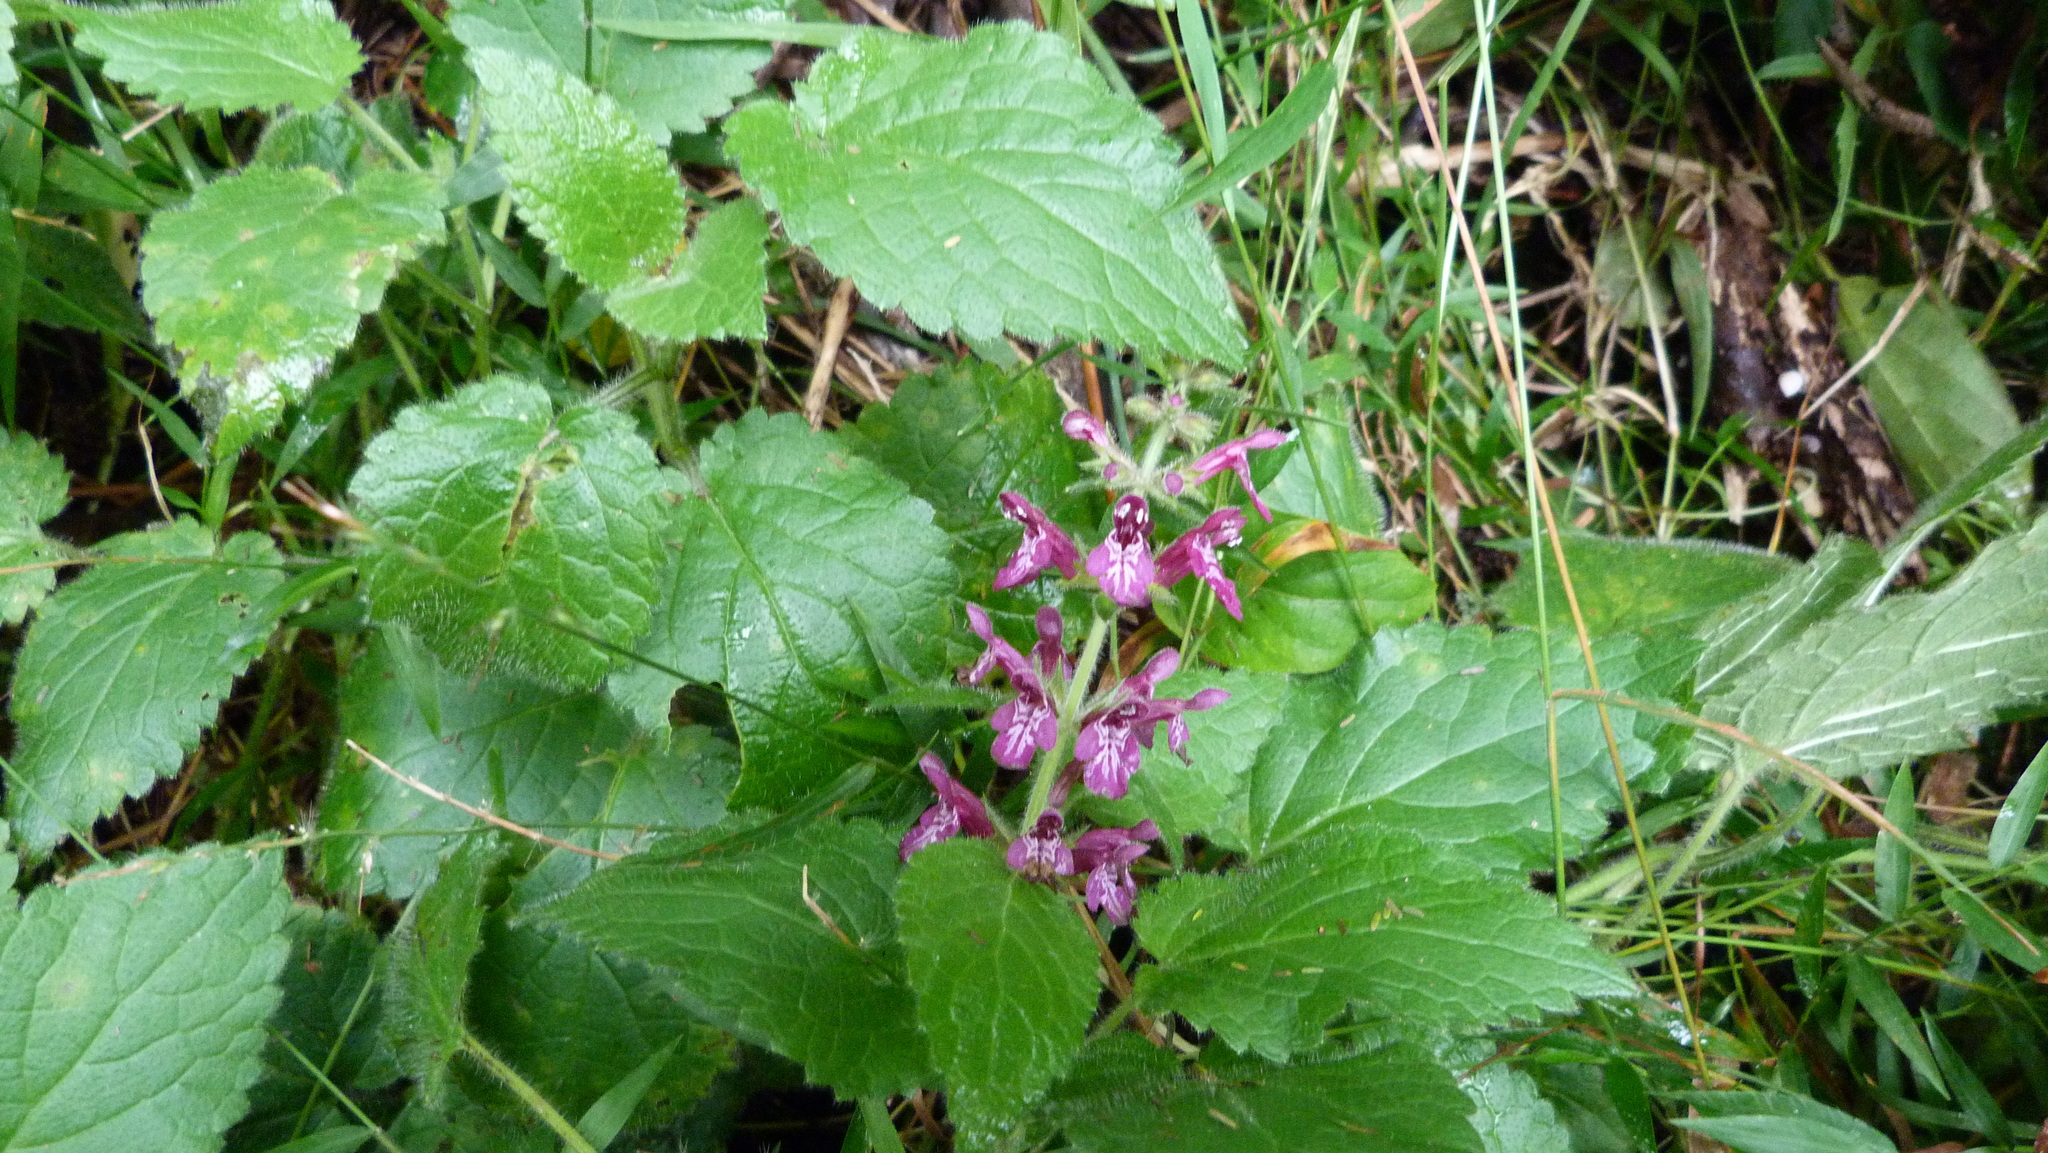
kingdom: Plantae
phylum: Tracheophyta
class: Magnoliopsida
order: Lamiales
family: Lamiaceae
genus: Stachys
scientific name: Stachys sylvatica
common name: Hedge woundwort
